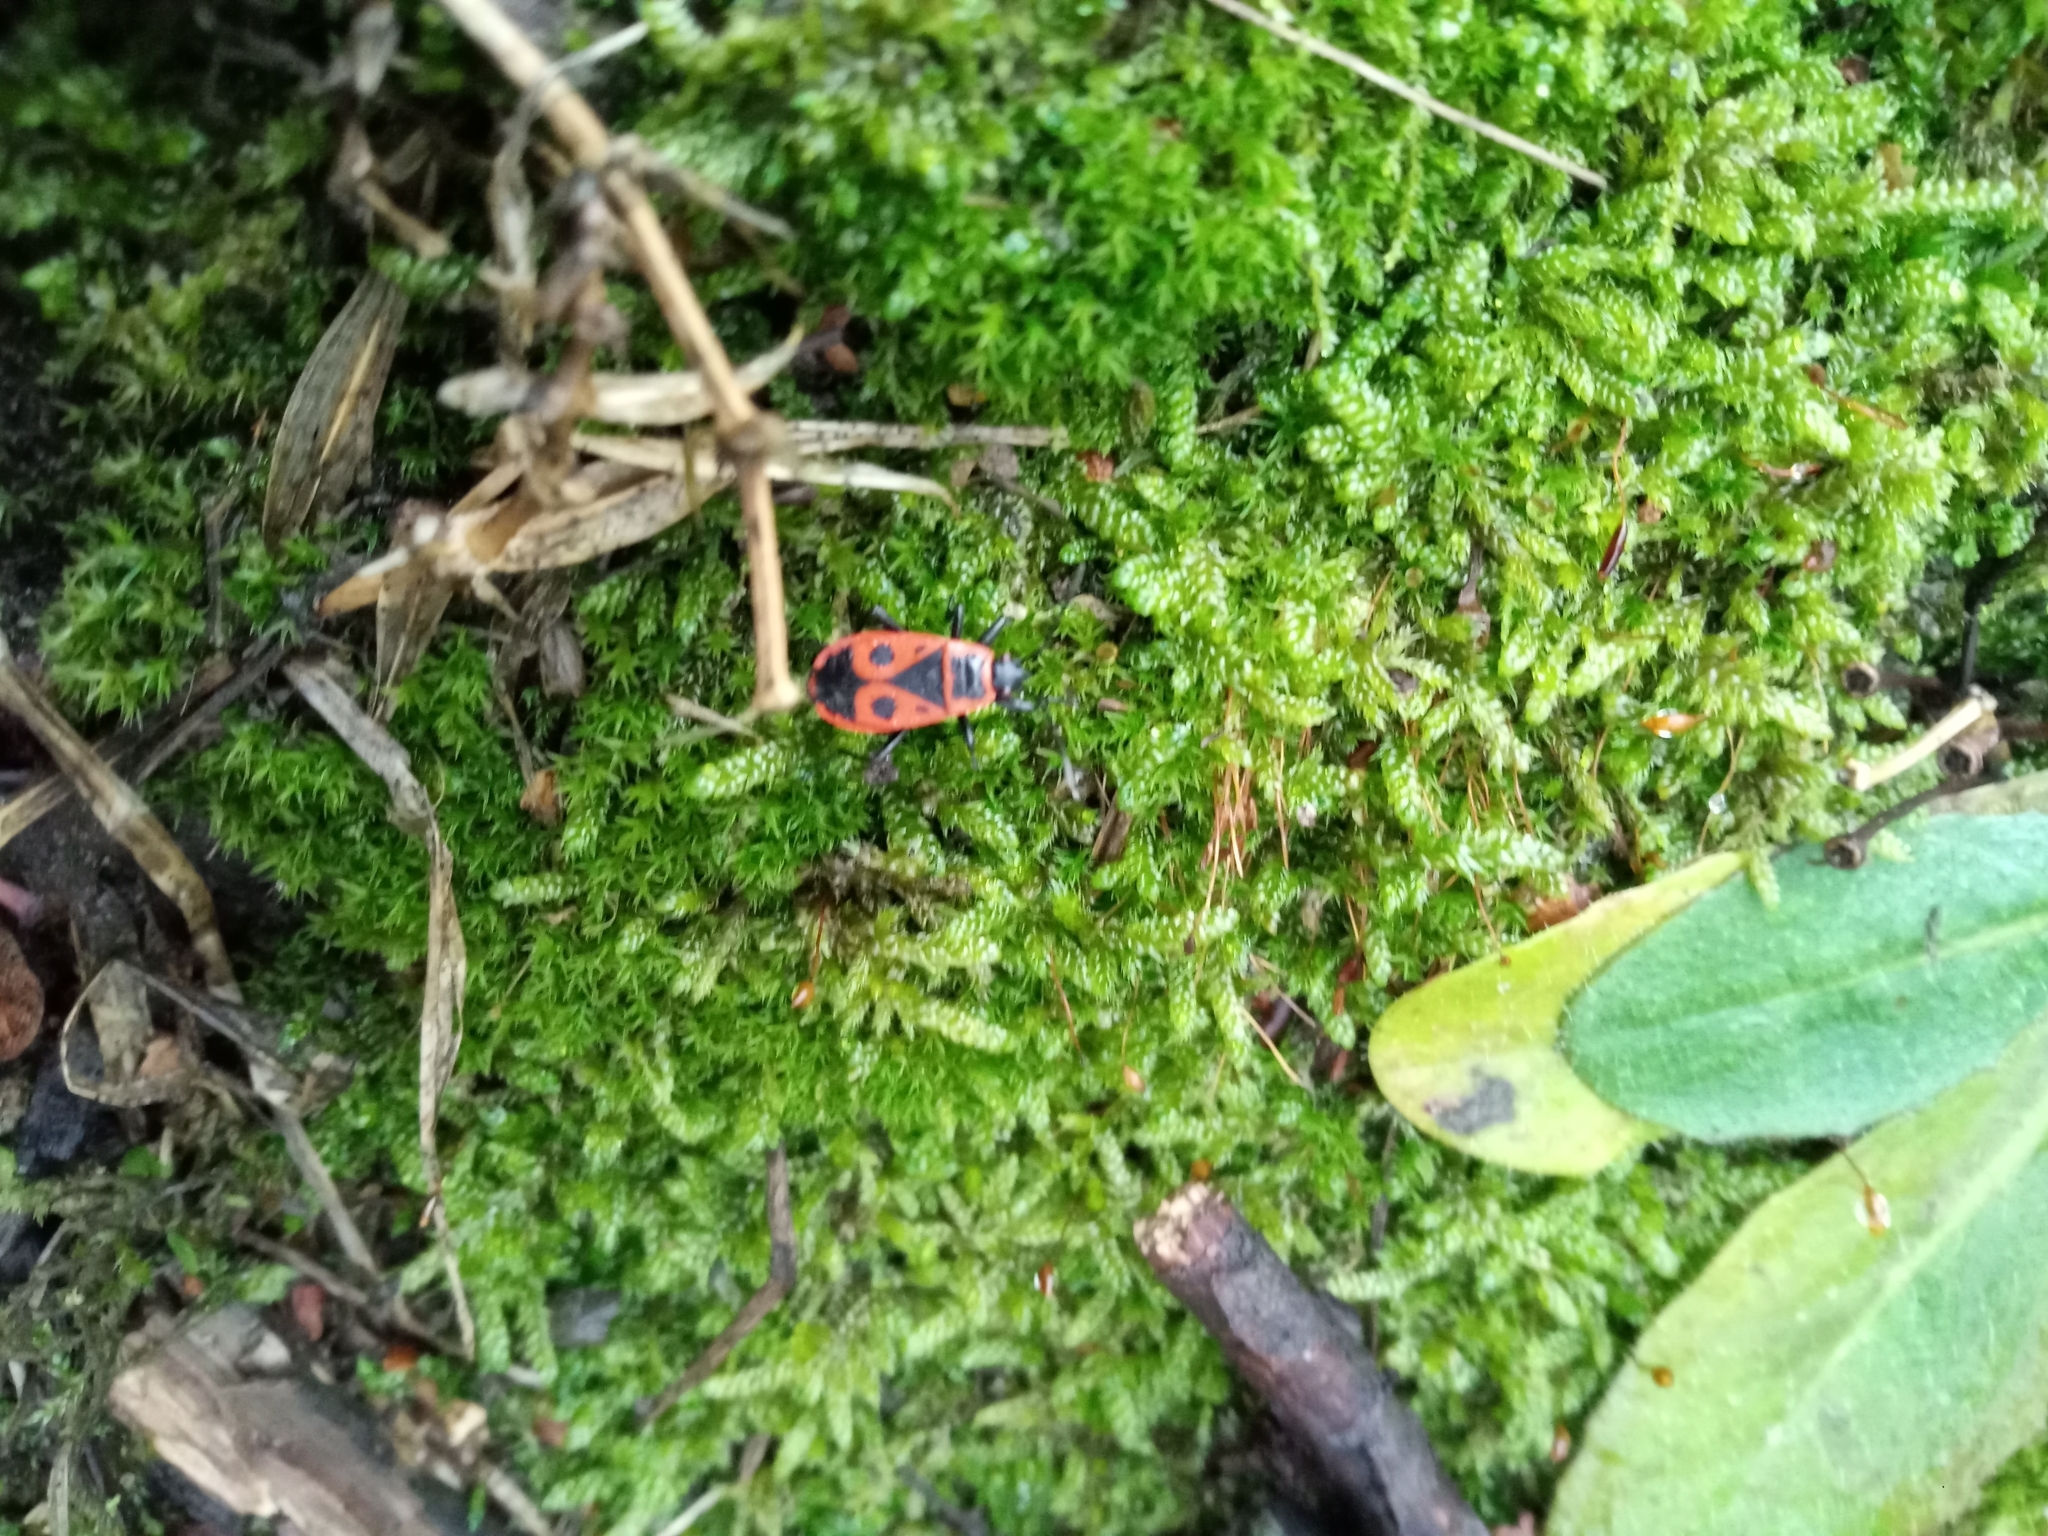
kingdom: Animalia
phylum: Arthropoda
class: Insecta
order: Hemiptera
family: Pyrrhocoridae
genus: Pyrrhocoris
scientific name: Pyrrhocoris apterus
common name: Firebug
